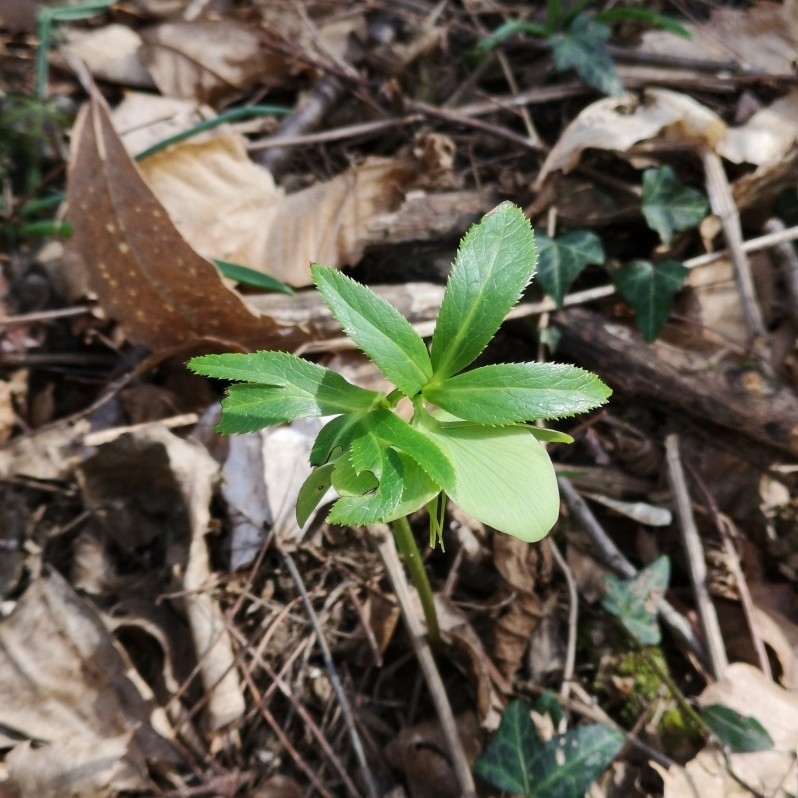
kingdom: Plantae
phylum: Tracheophyta
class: Magnoliopsida
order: Ranunculales
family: Ranunculaceae
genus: Helleborus
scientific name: Helleborus viridis
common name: Green hellebore
